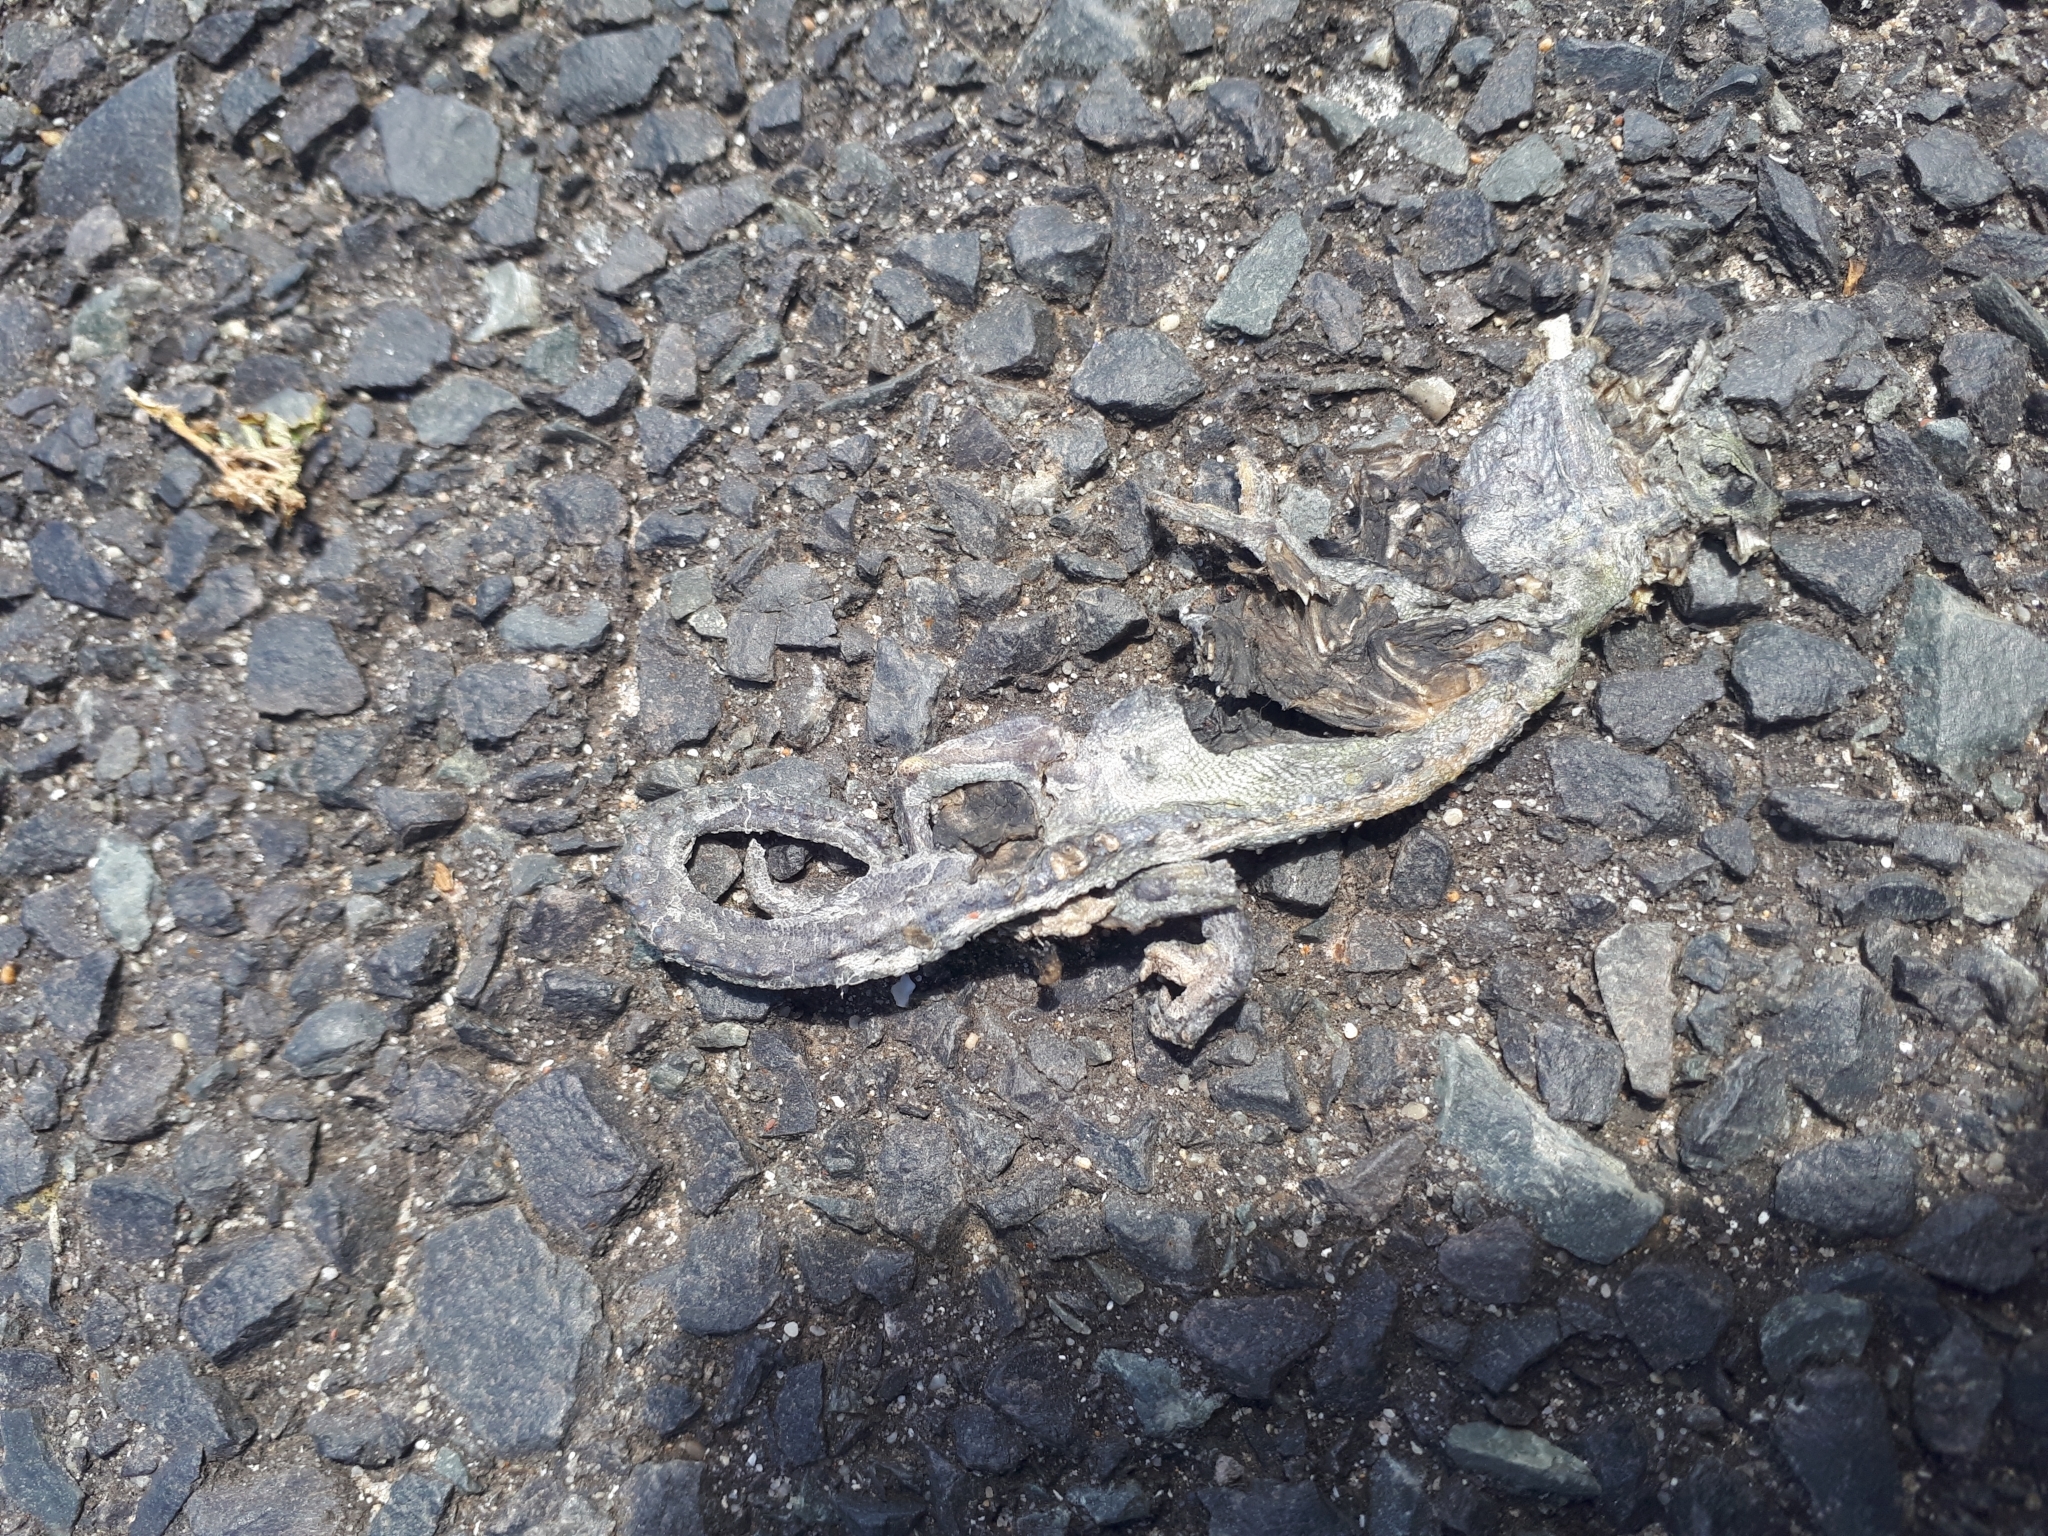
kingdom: Animalia
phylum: Chordata
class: Squamata
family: Chamaeleonidae
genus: Bradypodion
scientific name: Bradypodion pumilum
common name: Cape dwarf chameleon
